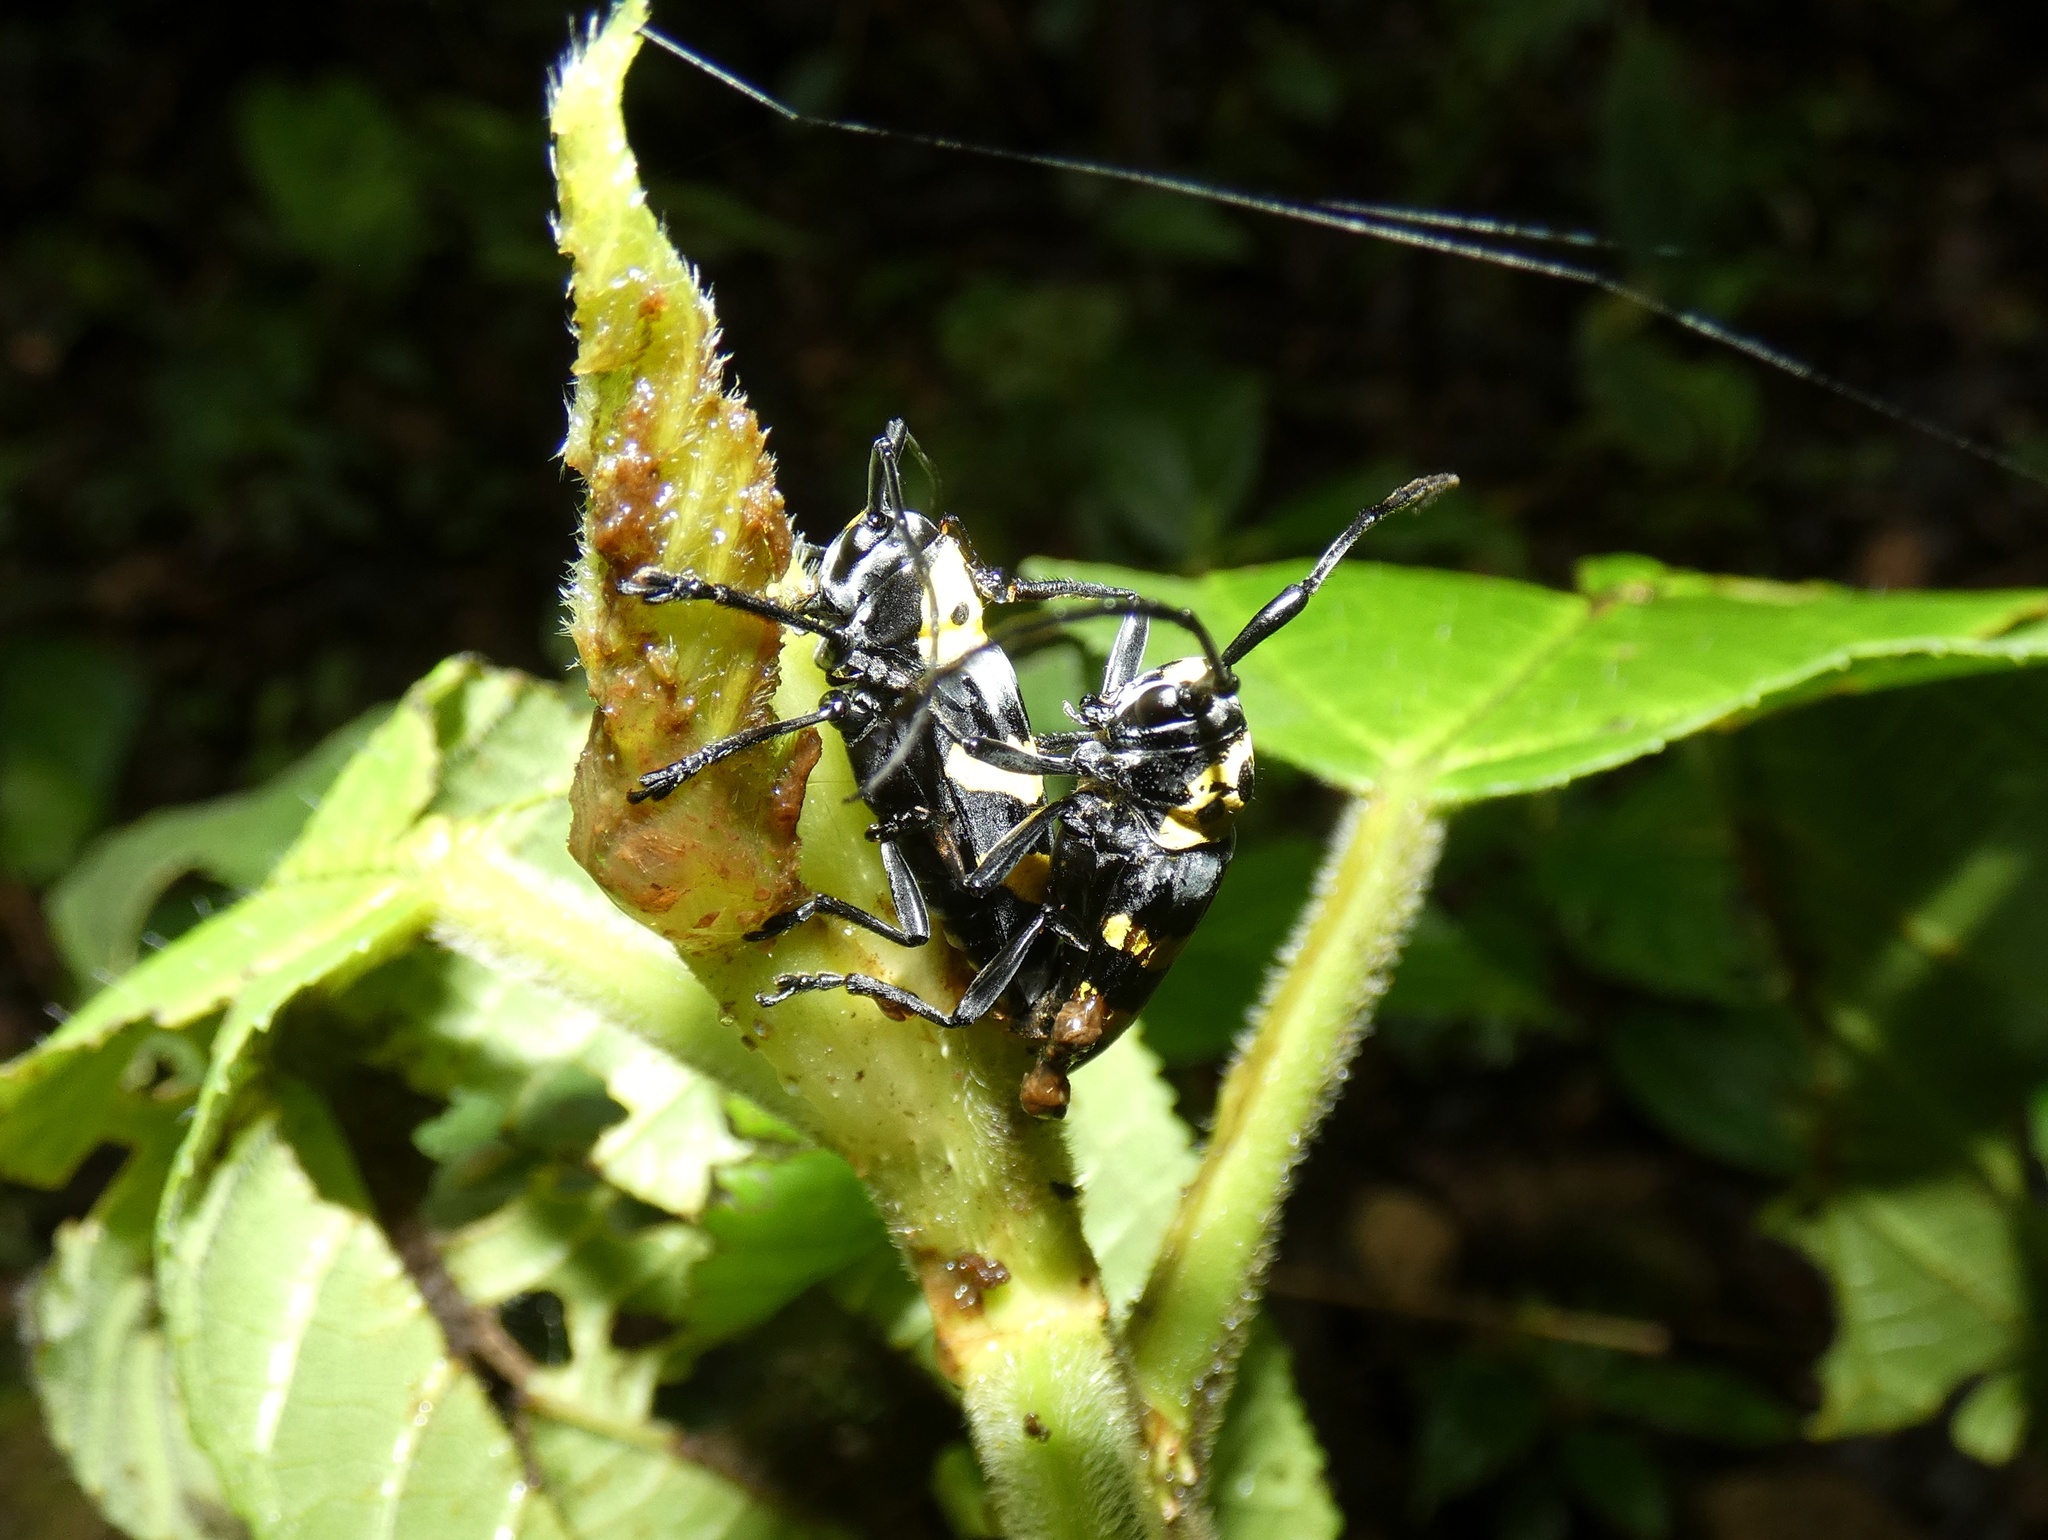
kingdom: Animalia
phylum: Arthropoda
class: Insecta
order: Coleoptera
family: Cerambycidae
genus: Oedudes
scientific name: Oedudes spectabilis
